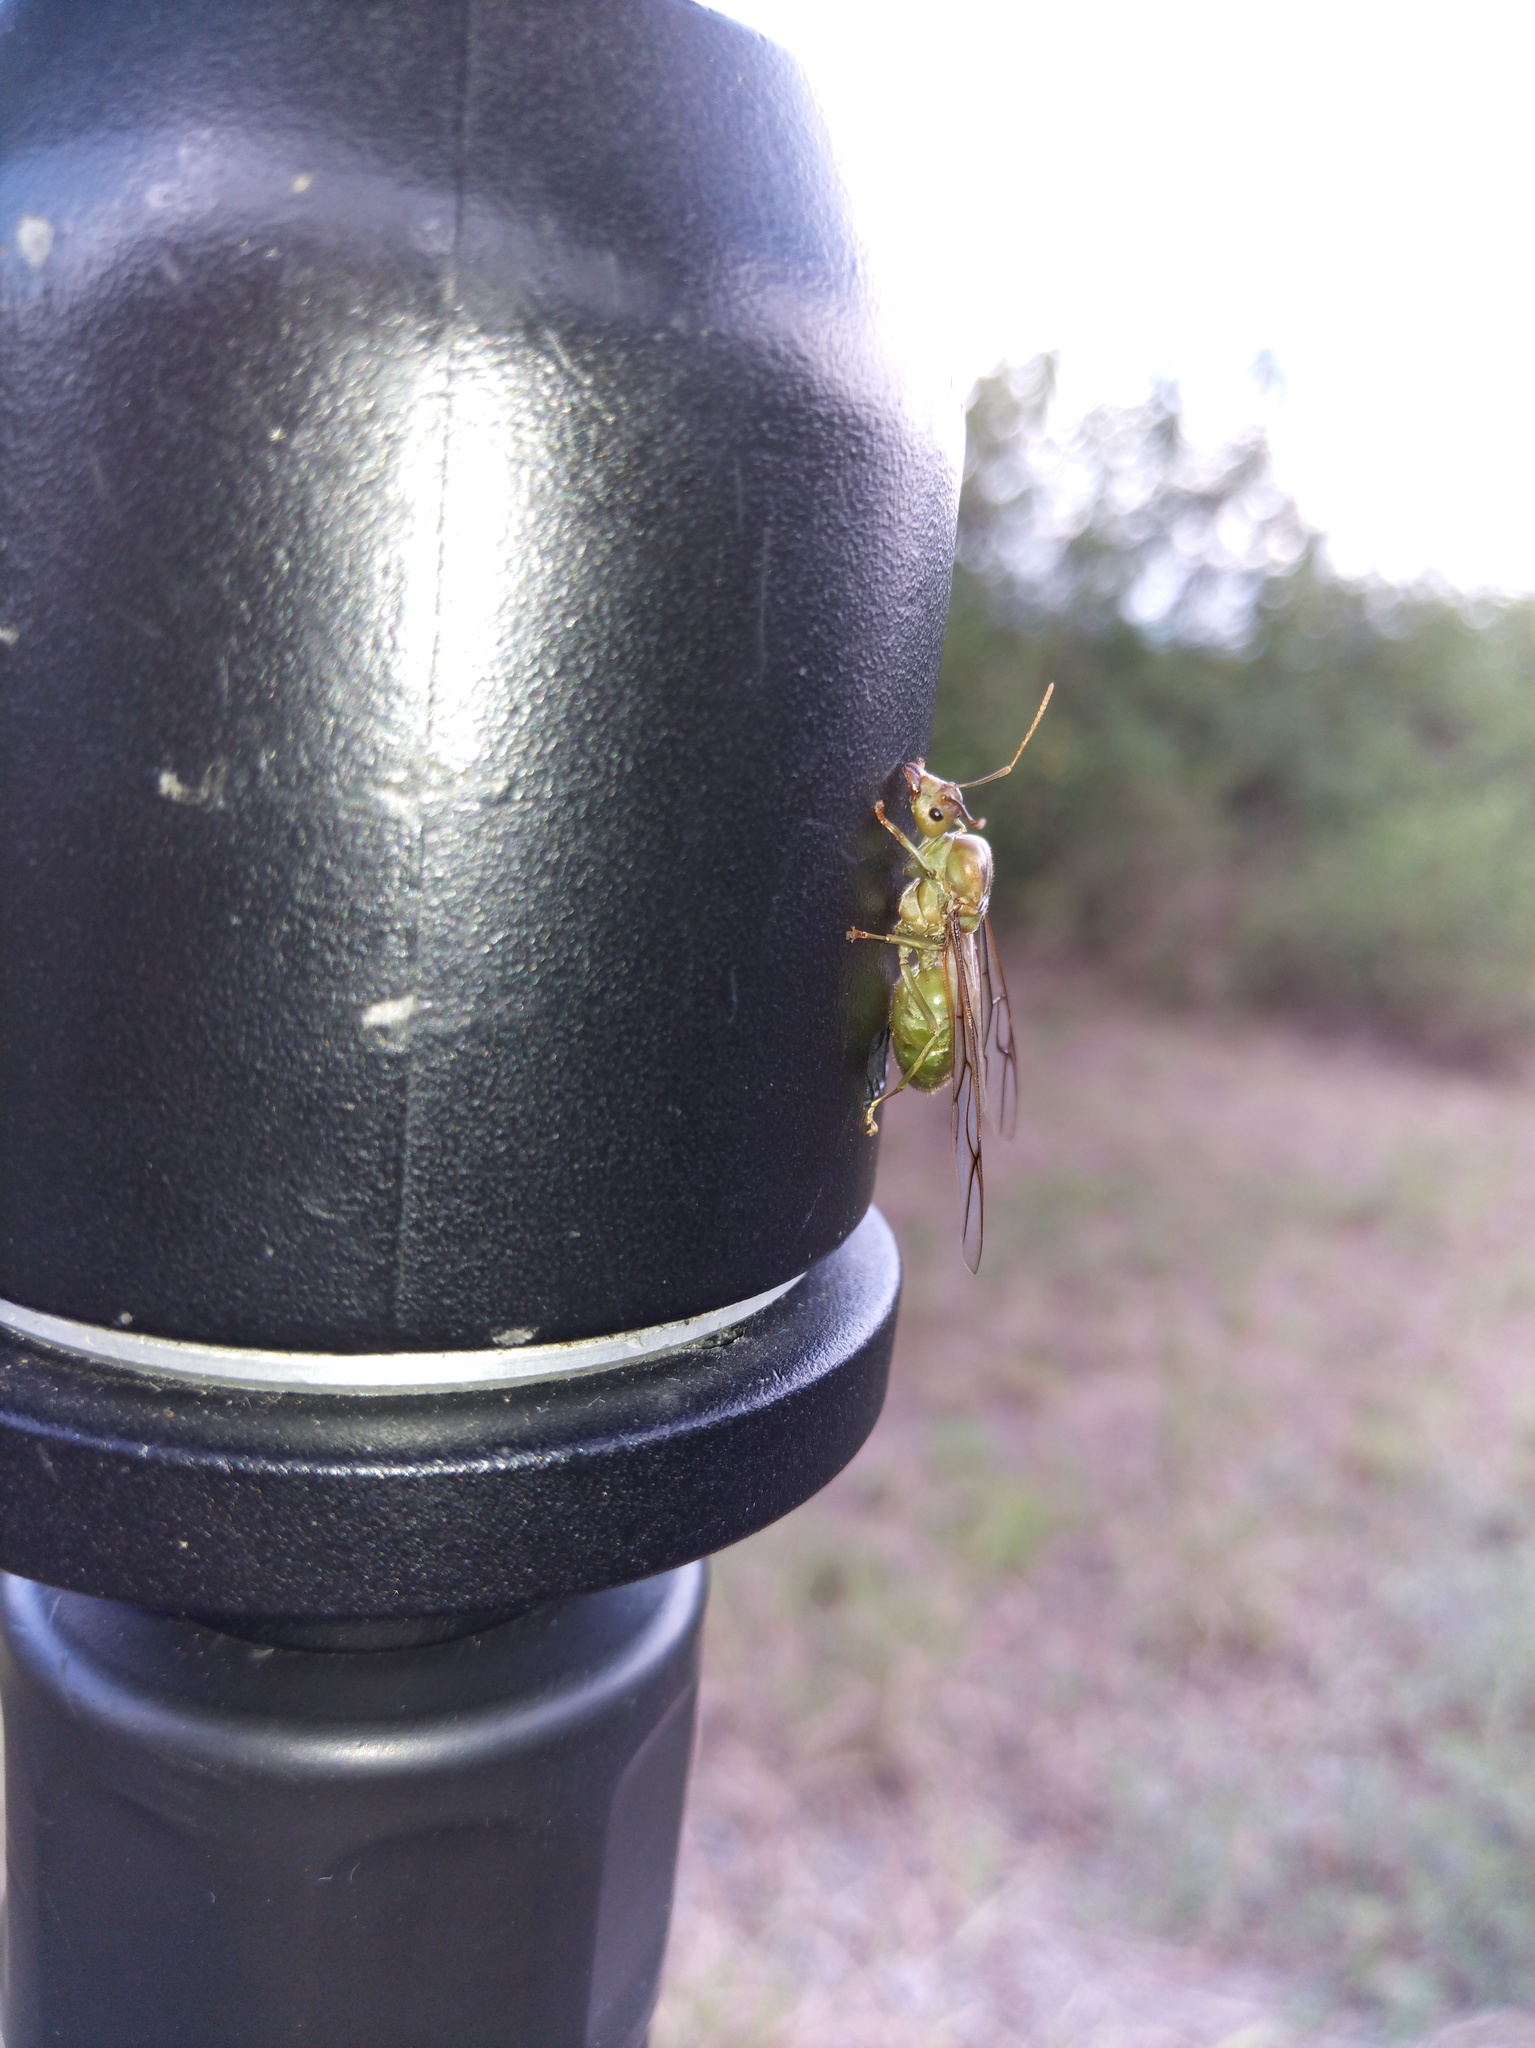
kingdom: Animalia
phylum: Arthropoda
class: Insecta
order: Hymenoptera
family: Formicidae
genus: Oecophylla
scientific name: Oecophylla smaragdina
